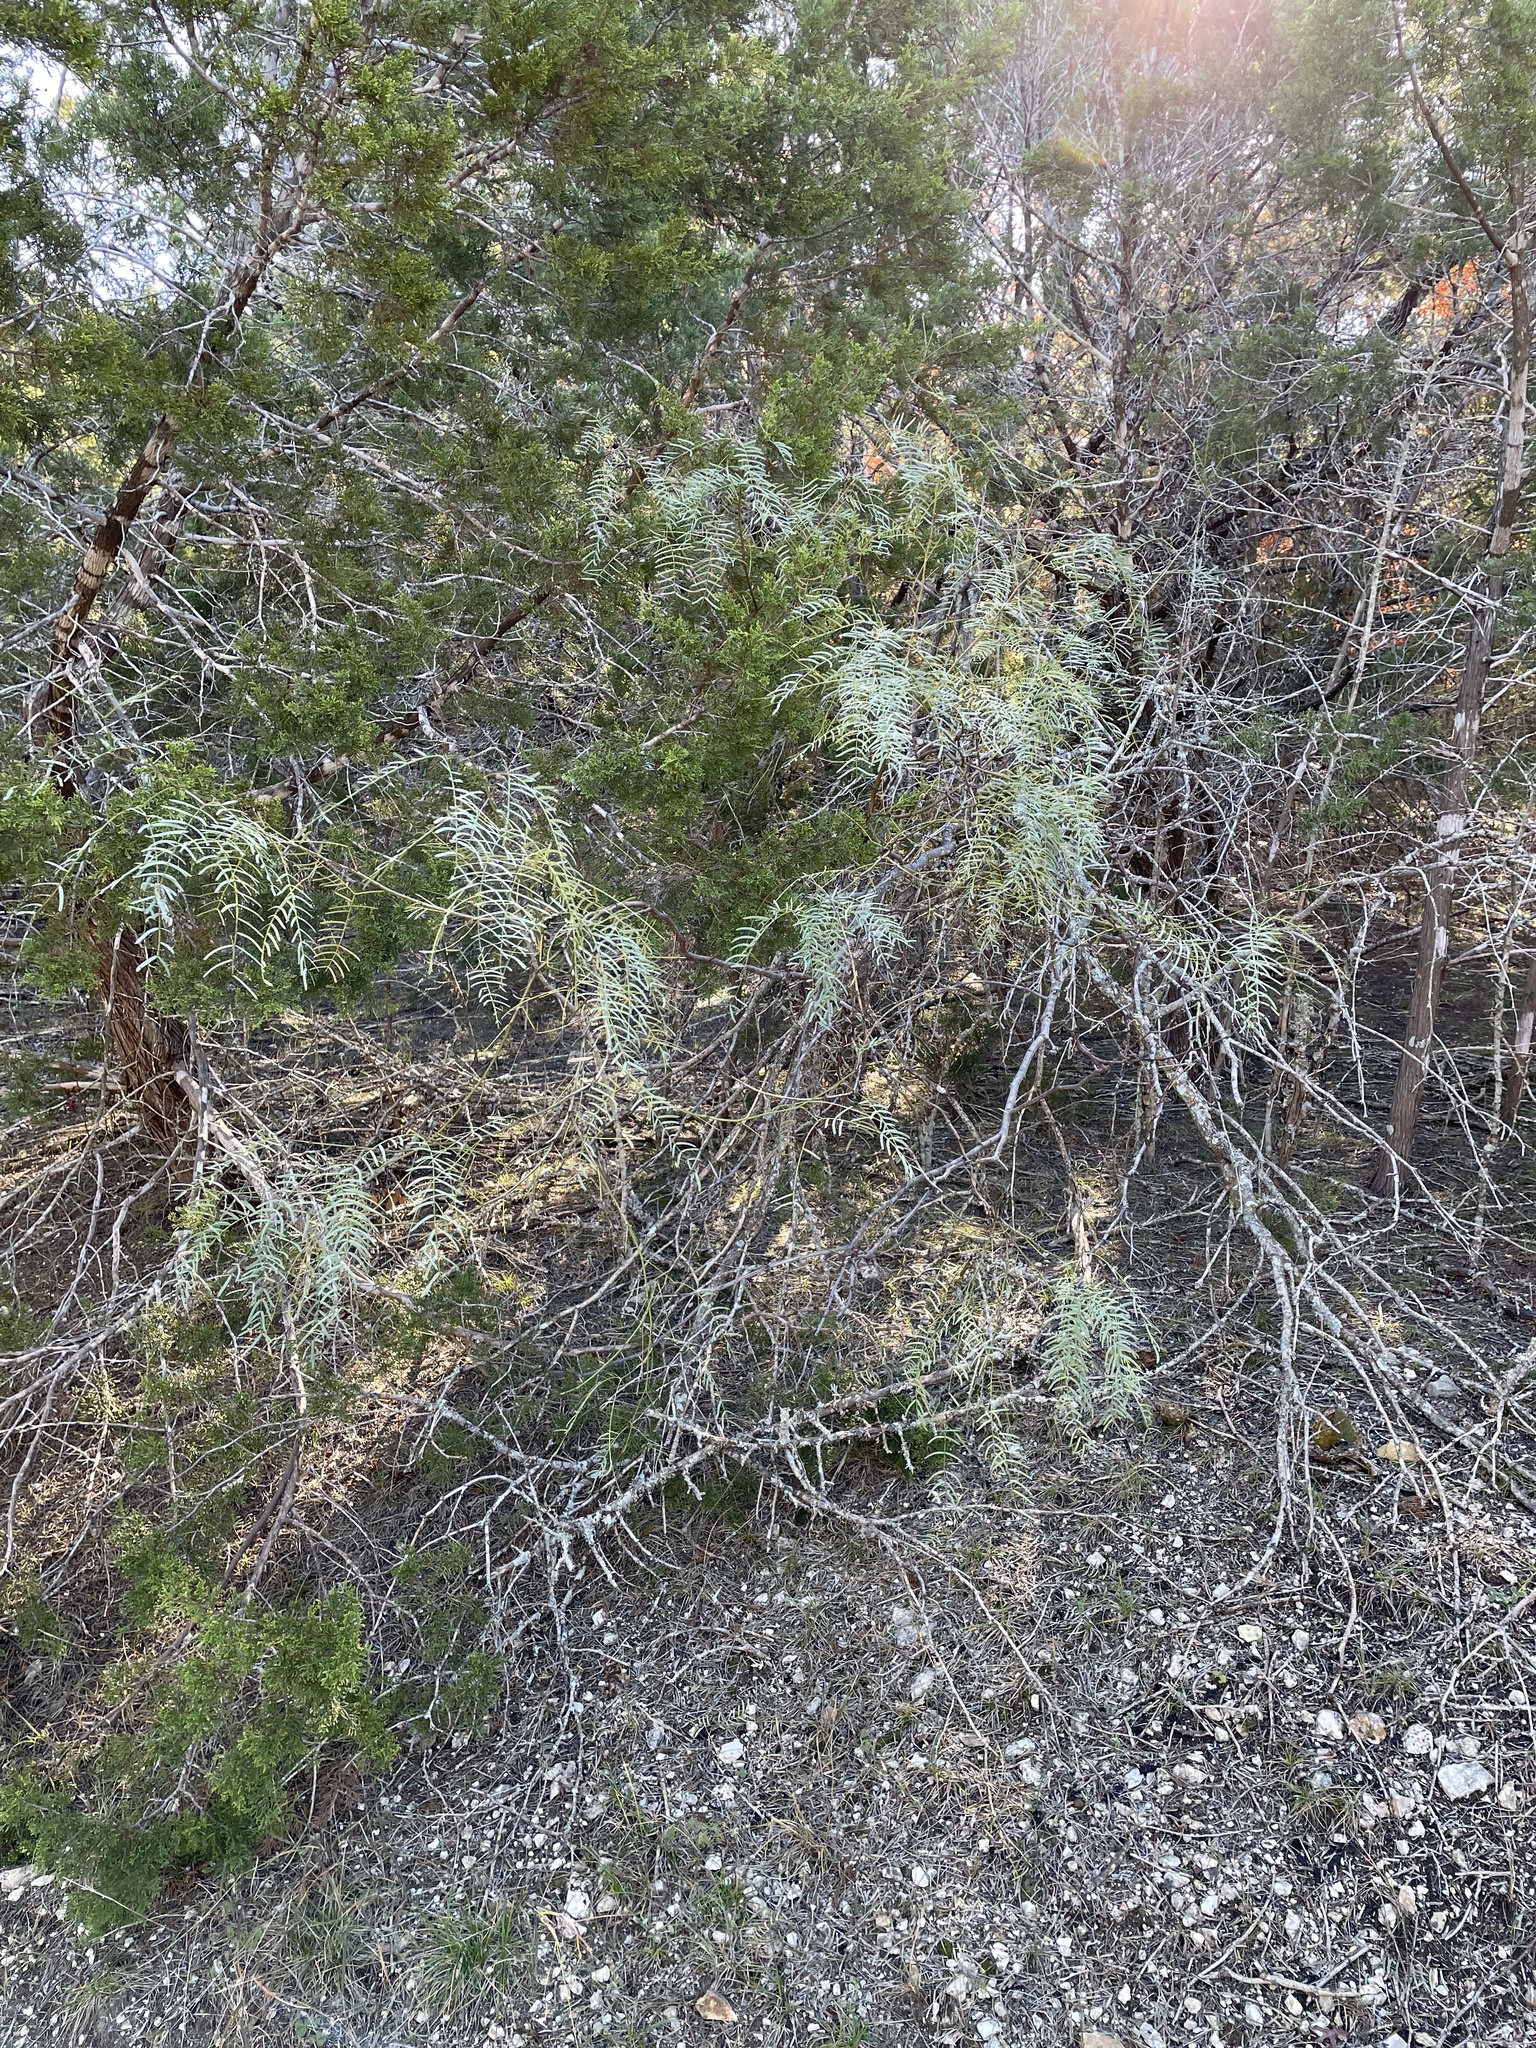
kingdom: Plantae
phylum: Tracheophyta
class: Magnoliopsida
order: Fabales
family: Fabaceae
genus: Prosopis
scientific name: Prosopis glandulosa
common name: Honey mesquite
